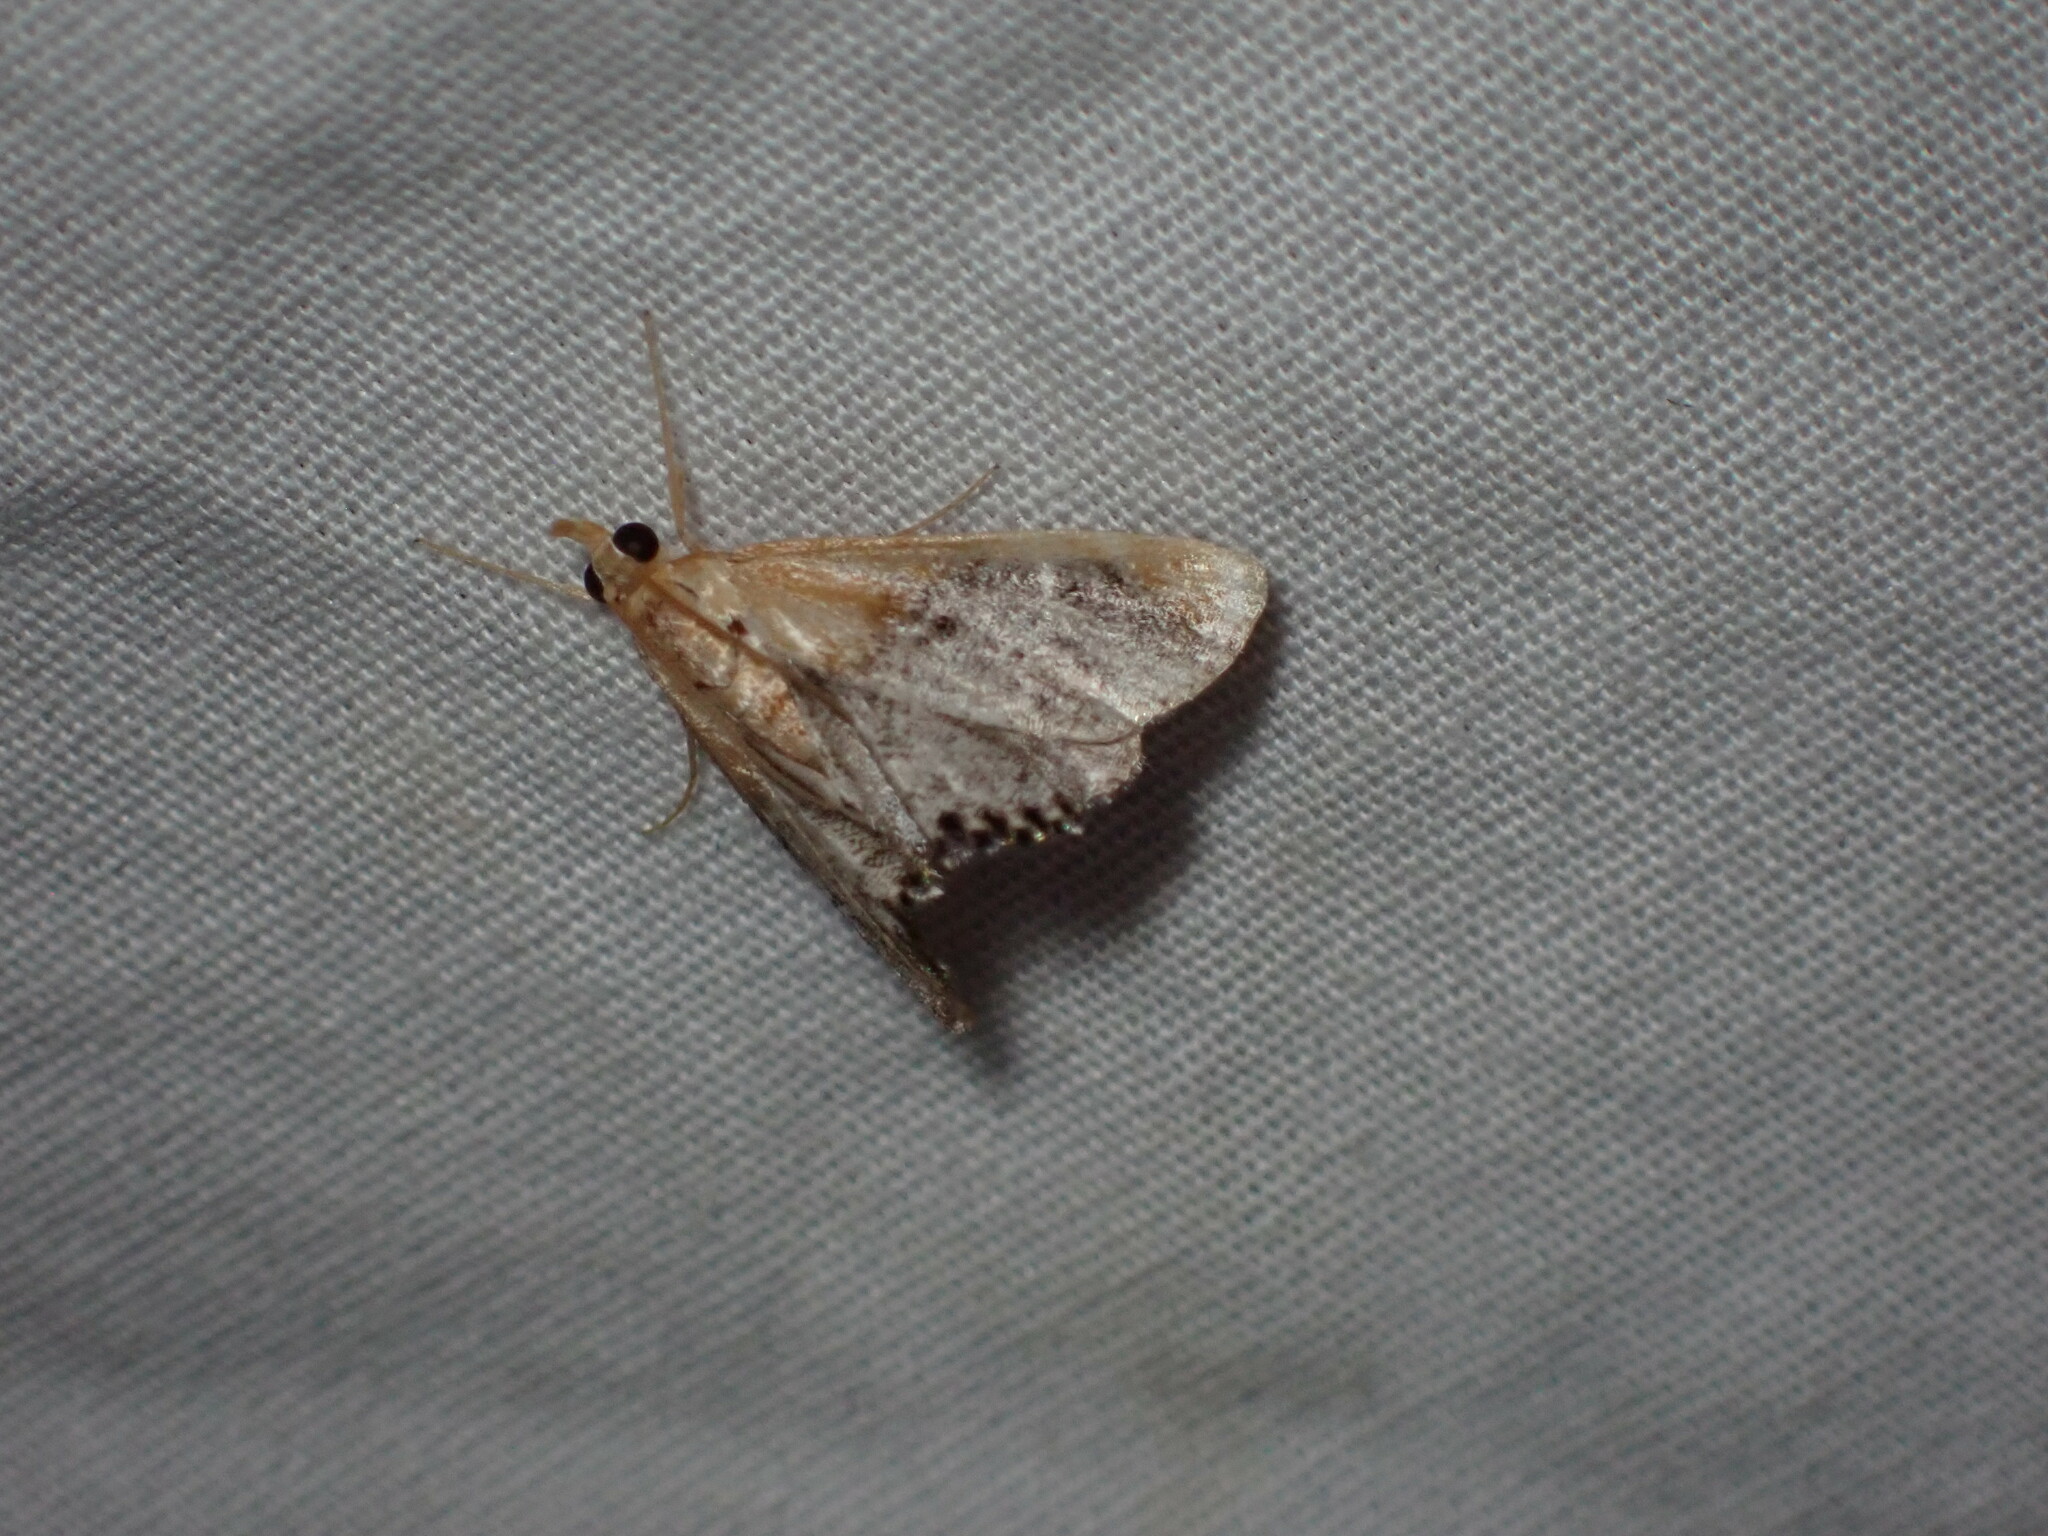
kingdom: Animalia
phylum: Arthropoda
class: Insecta
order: Lepidoptera
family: Crambidae
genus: Chalcoela
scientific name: Chalcoela iphitalis
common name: Sooty-winged chalcoela moth
